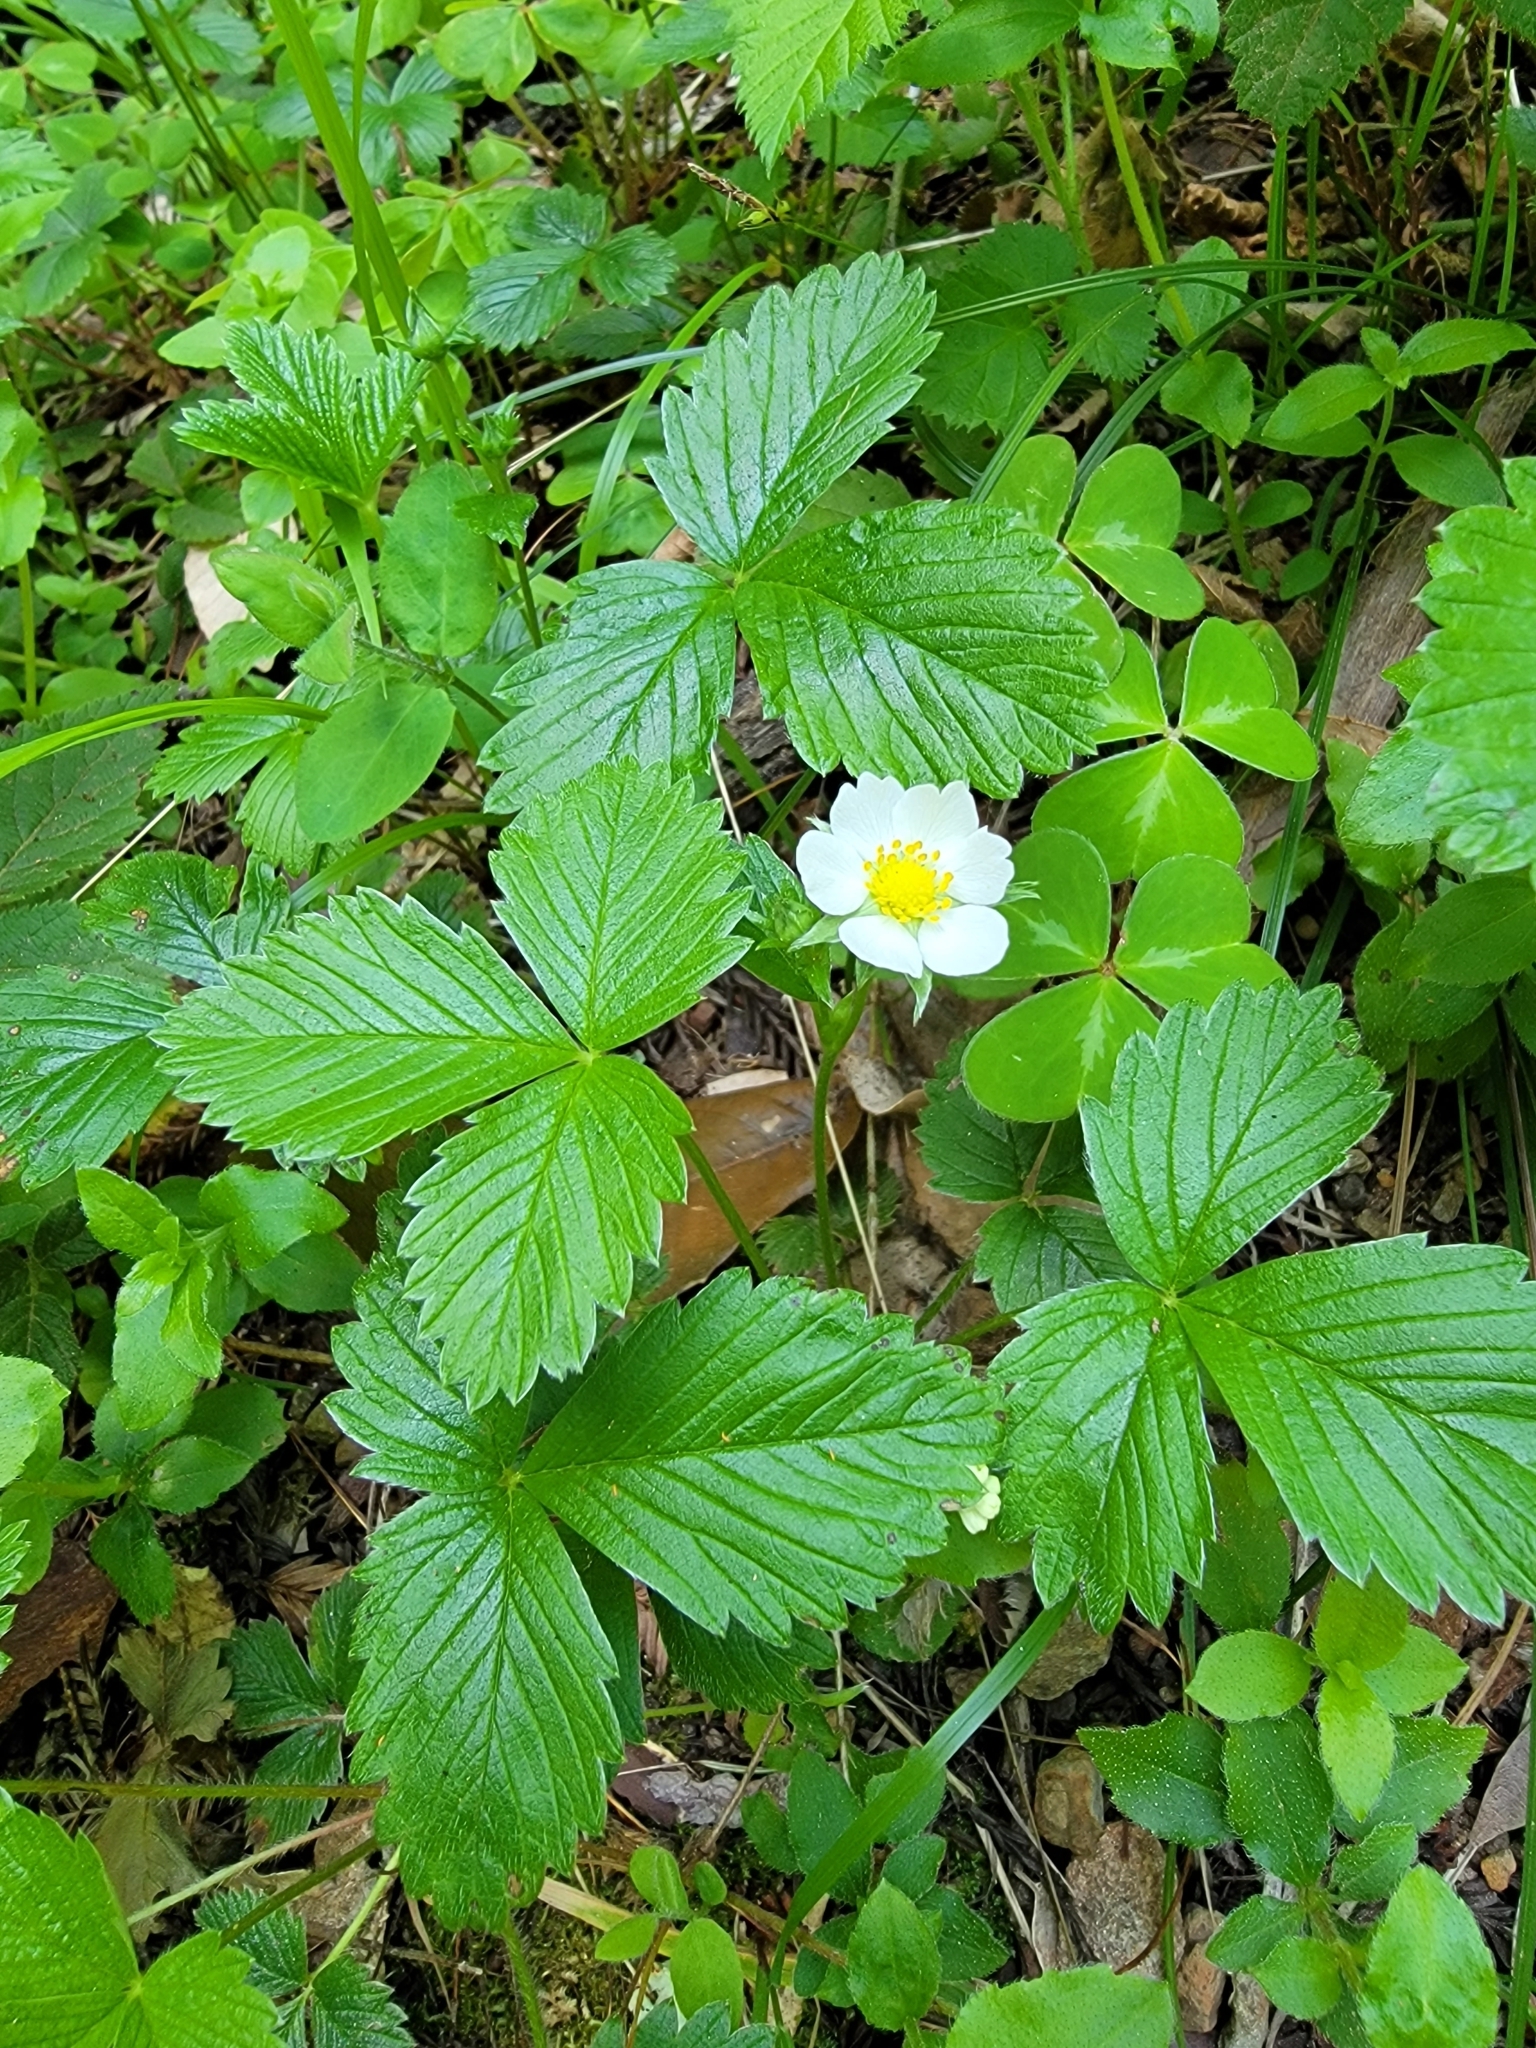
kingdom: Plantae
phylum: Tracheophyta
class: Magnoliopsida
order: Rosales
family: Rosaceae
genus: Fragaria
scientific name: Fragaria vesca
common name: Wild strawberry
